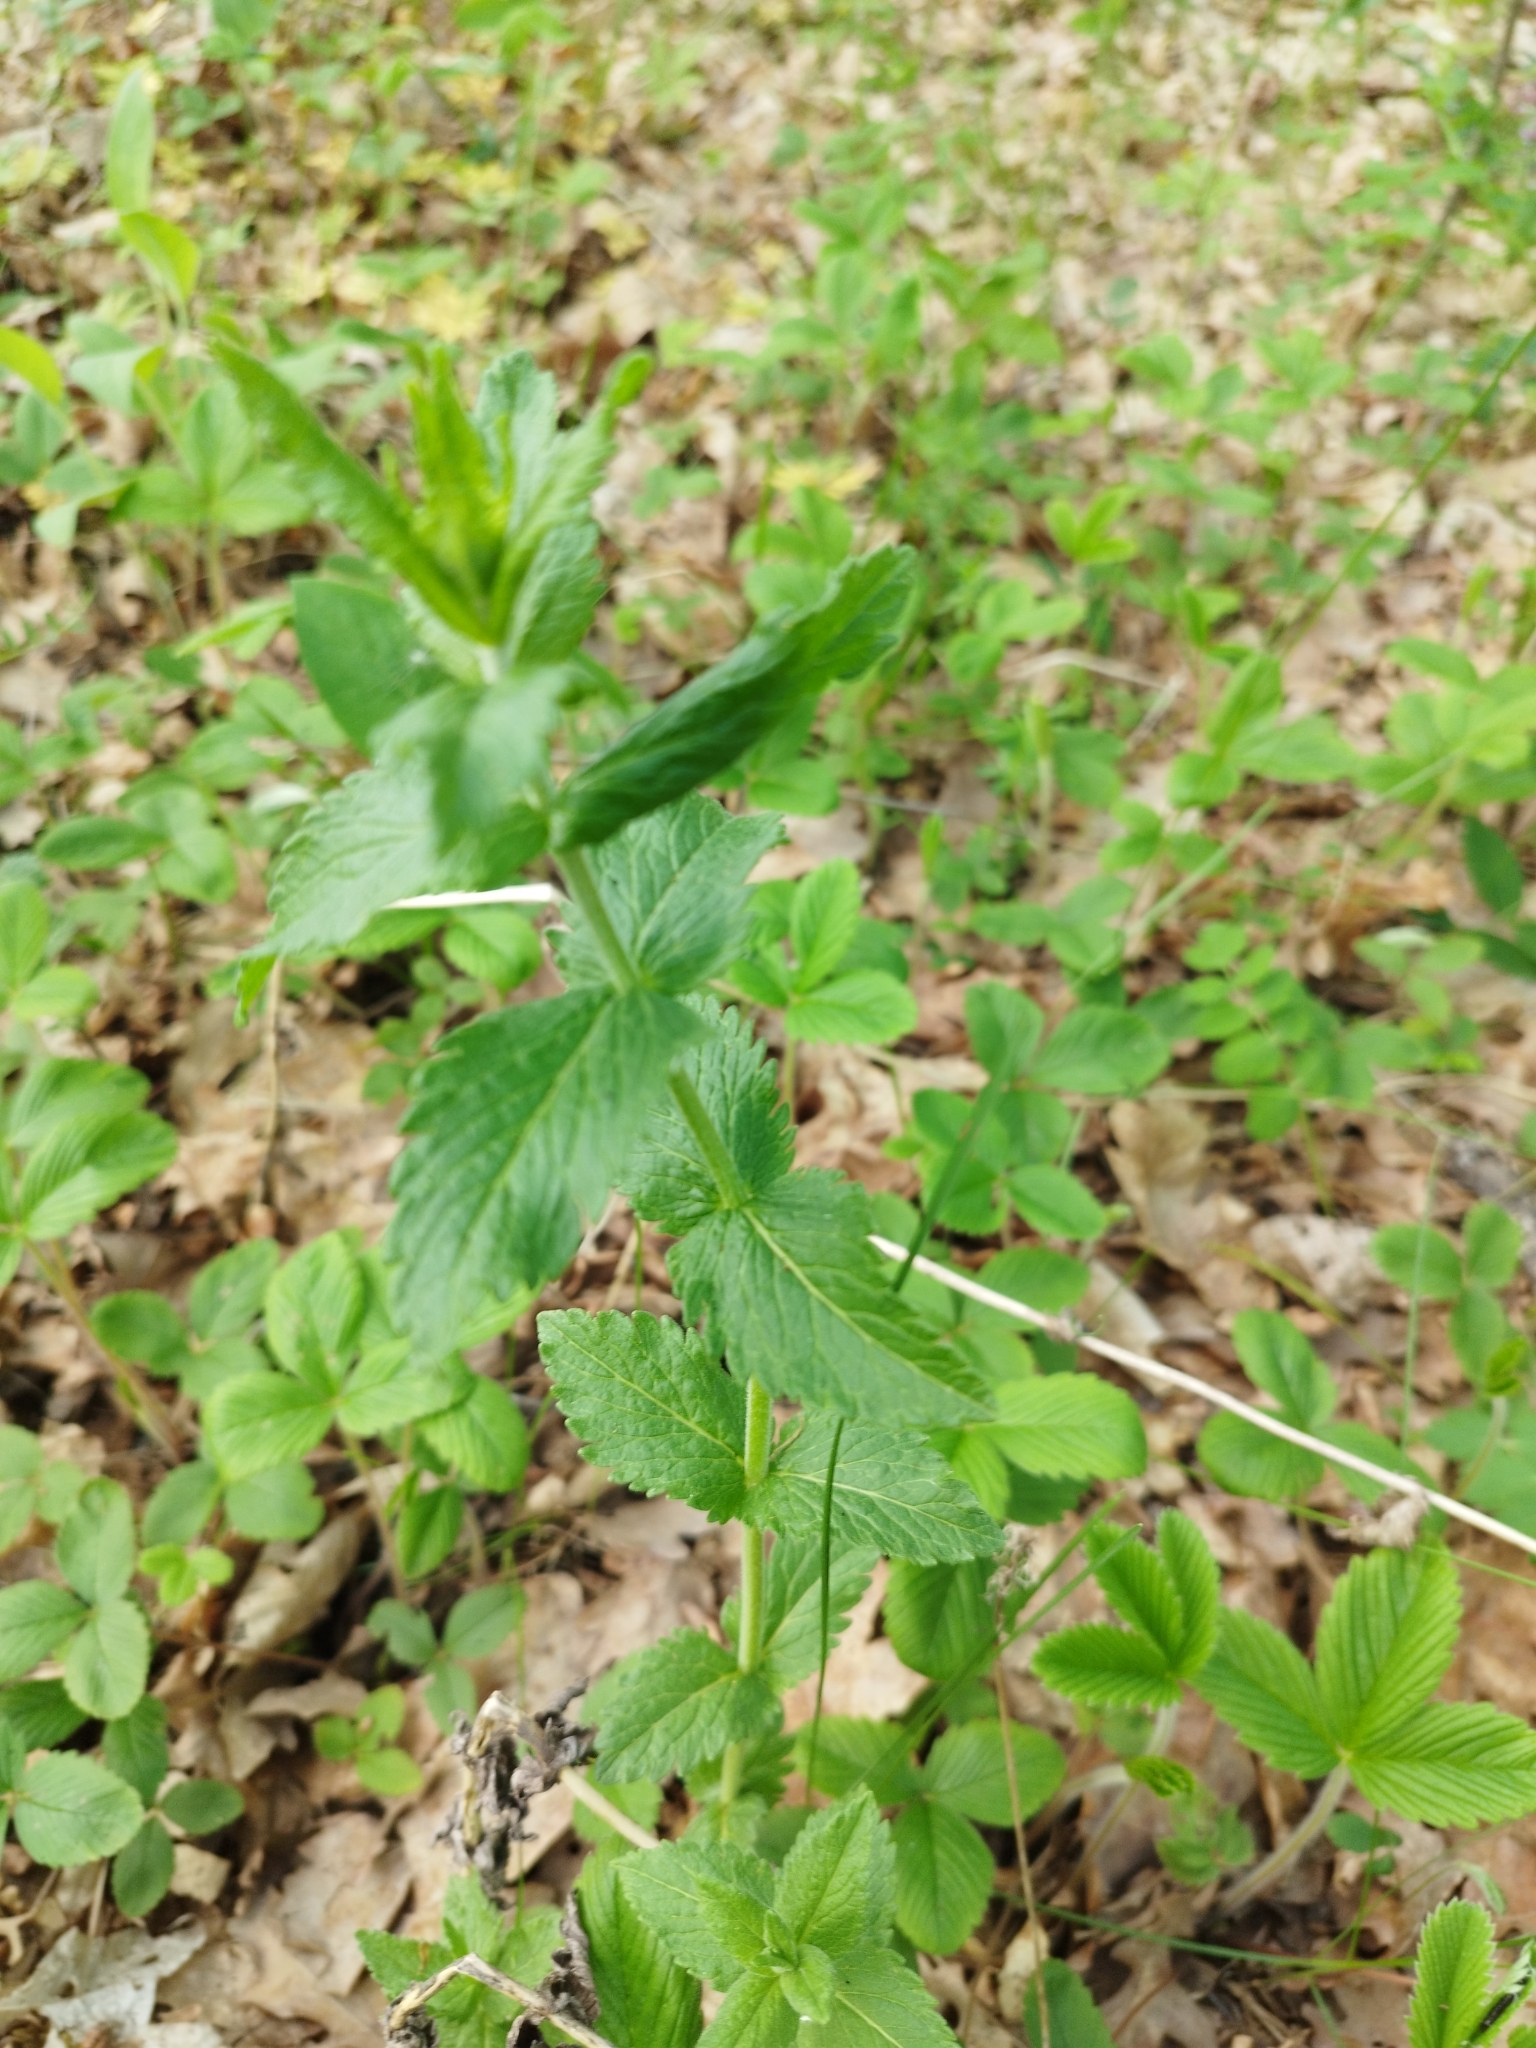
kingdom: Plantae
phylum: Tracheophyta
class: Magnoliopsida
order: Lamiales
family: Plantaginaceae
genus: Veronica
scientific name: Veronica teucrium
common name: Large speedwell
